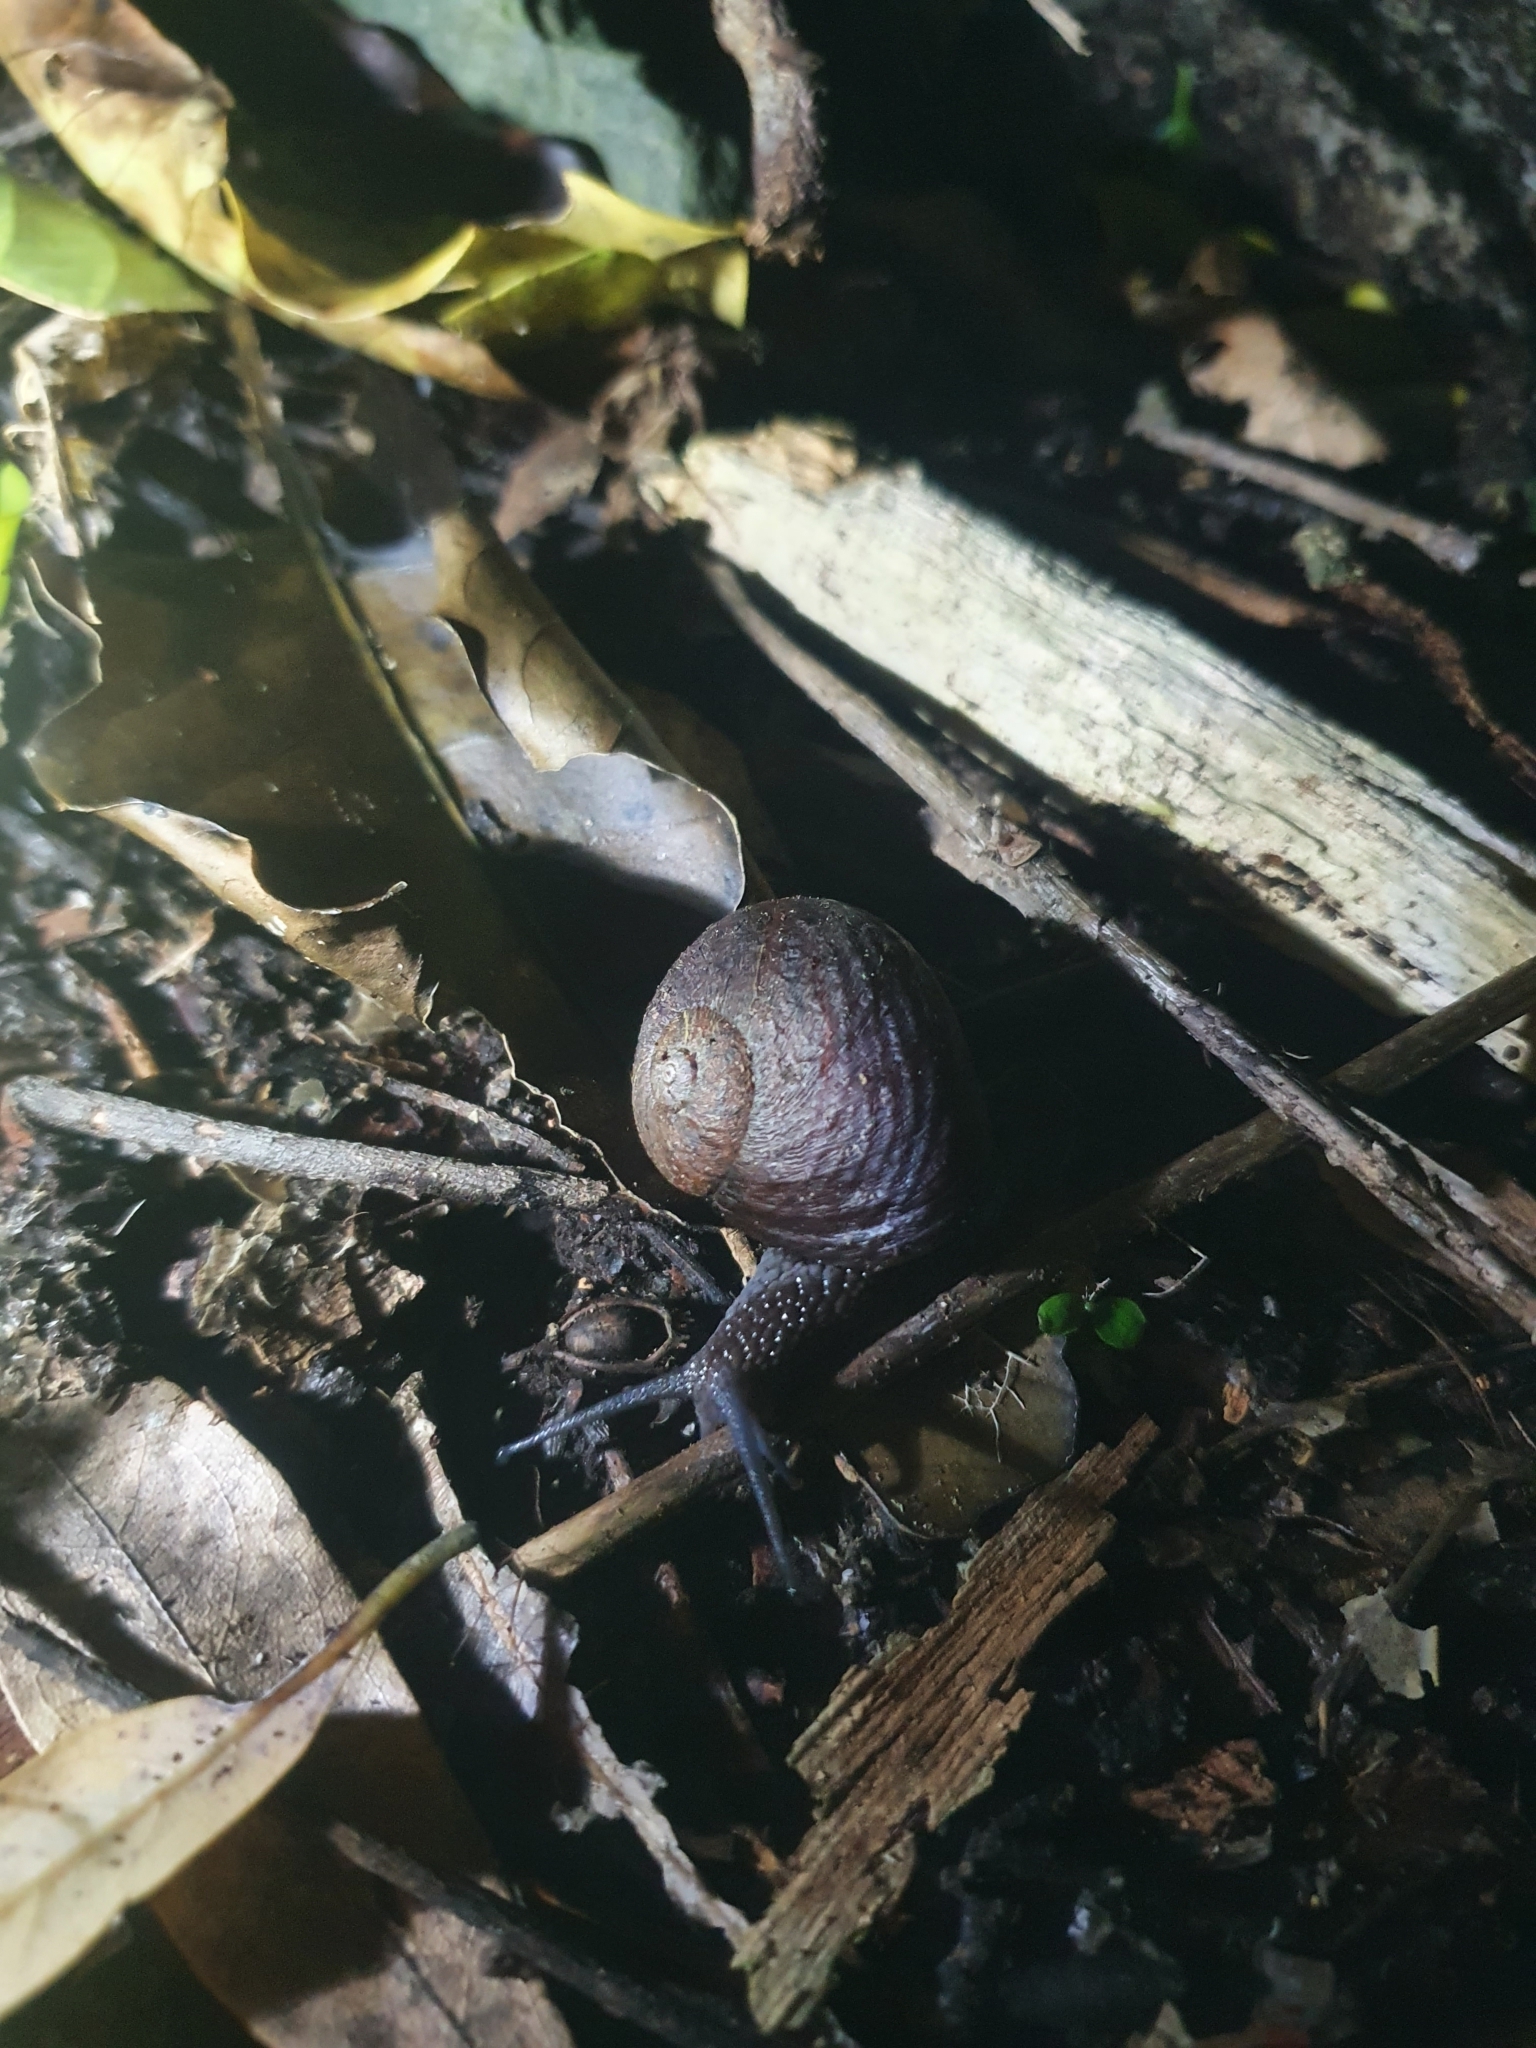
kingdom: Animalia
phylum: Mollusca
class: Gastropoda
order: Stylommatophora
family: Rhytididae
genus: Rhytida
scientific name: Rhytida stephenensis
